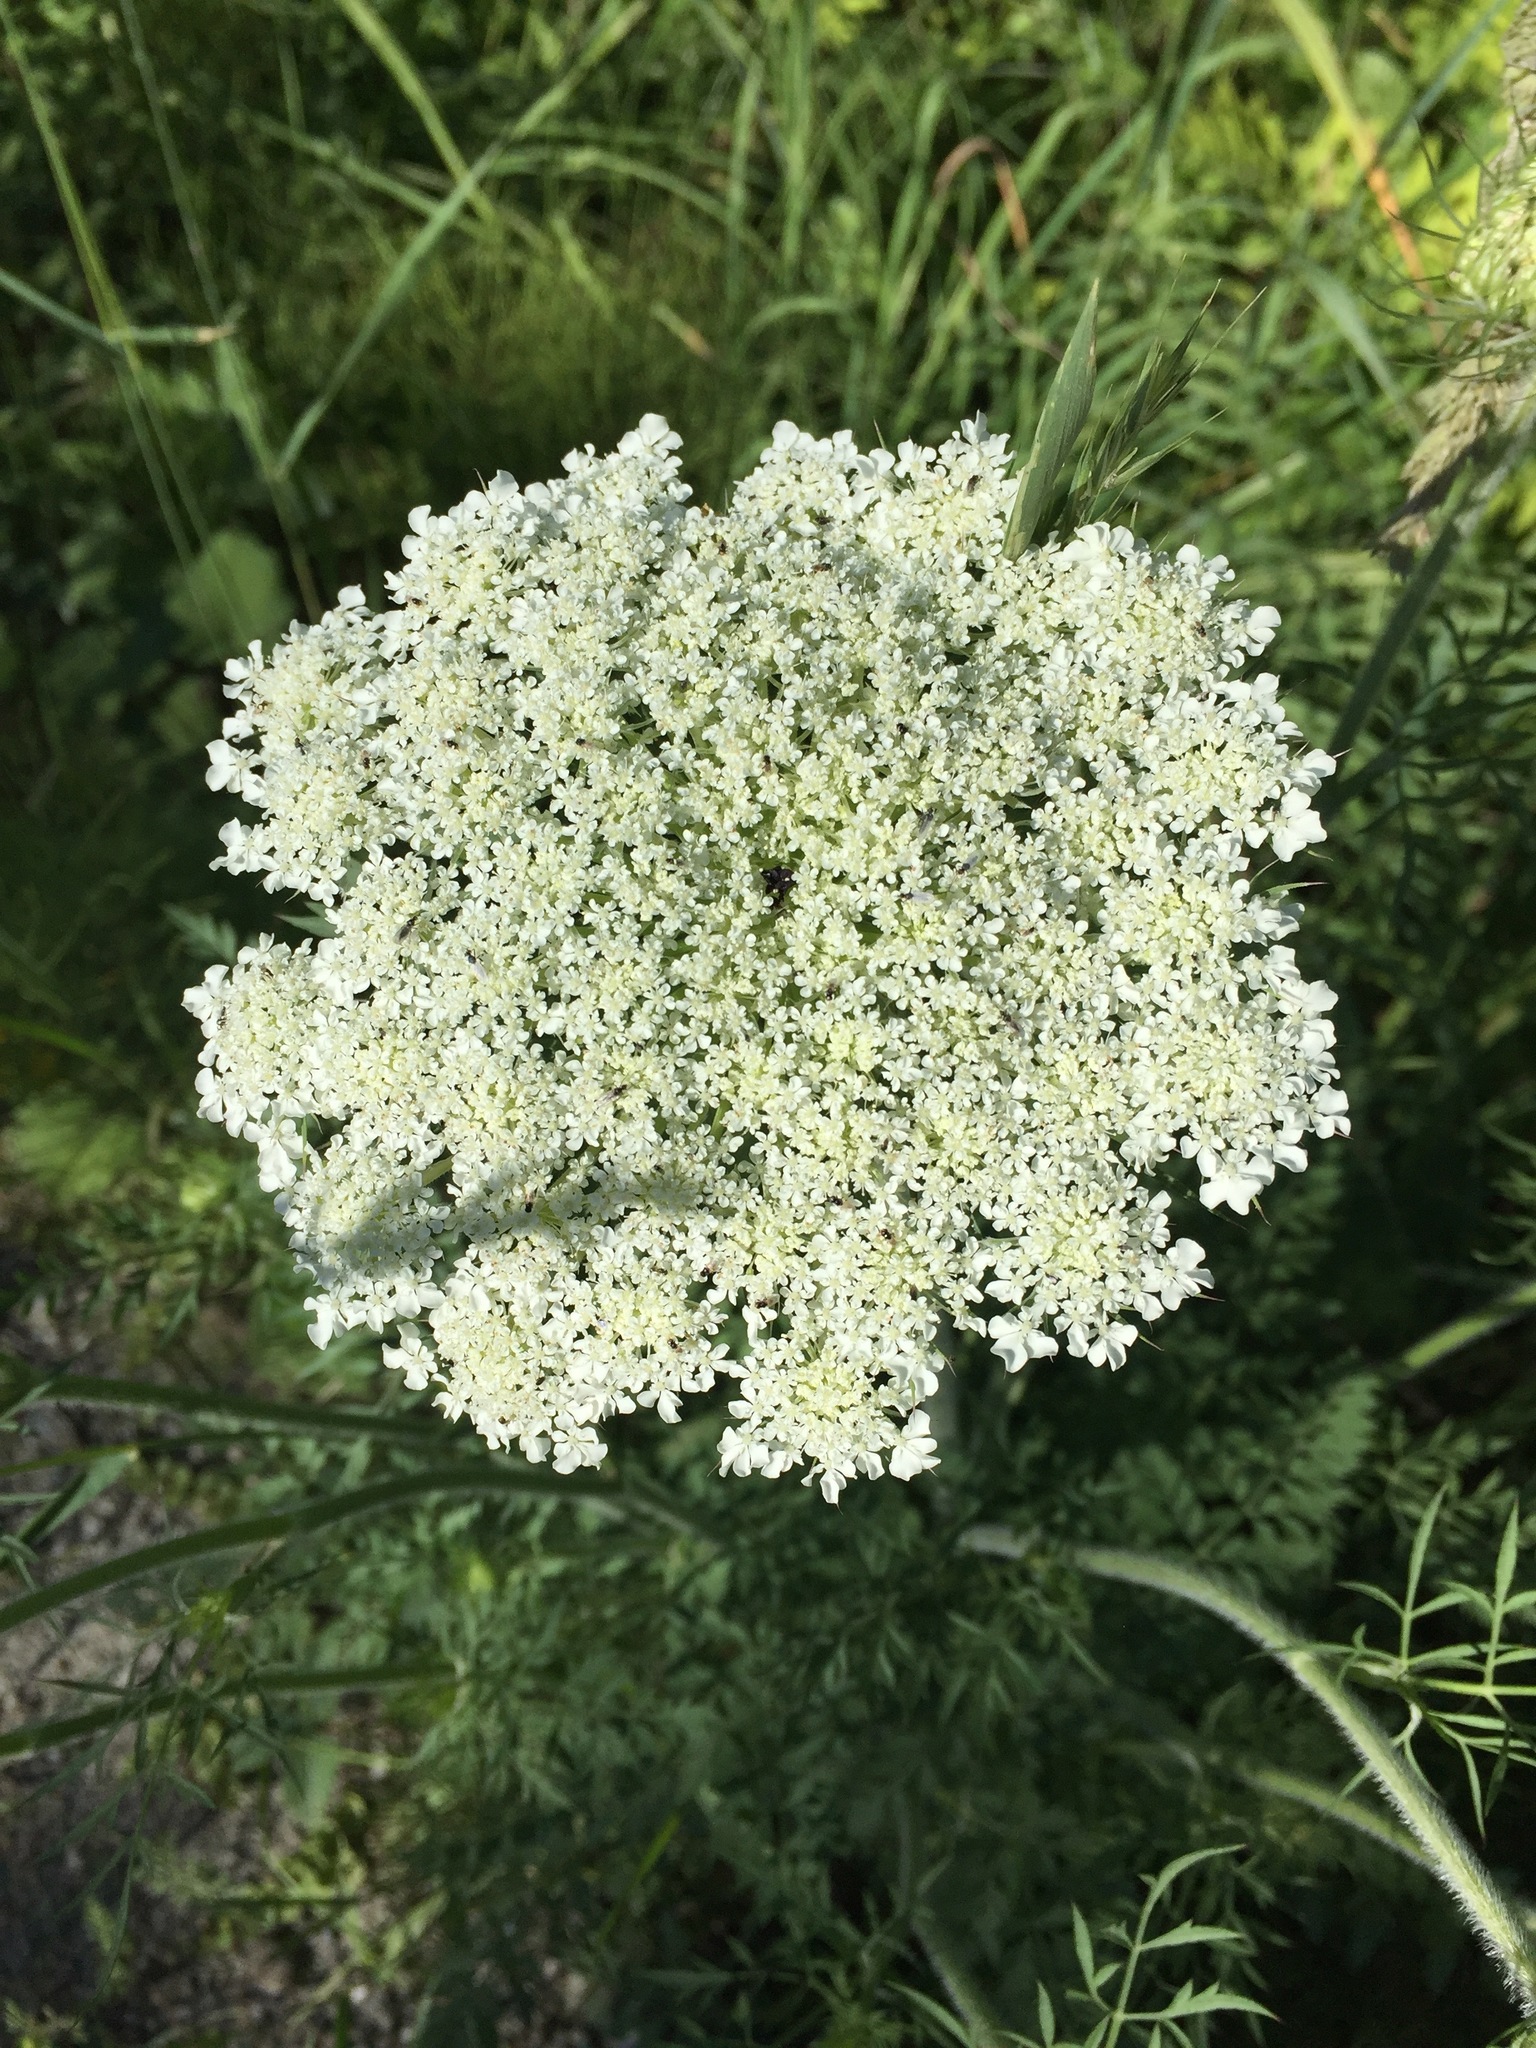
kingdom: Plantae
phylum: Tracheophyta
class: Magnoliopsida
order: Apiales
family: Apiaceae
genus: Daucus
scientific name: Daucus carota
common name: Wild carrot
